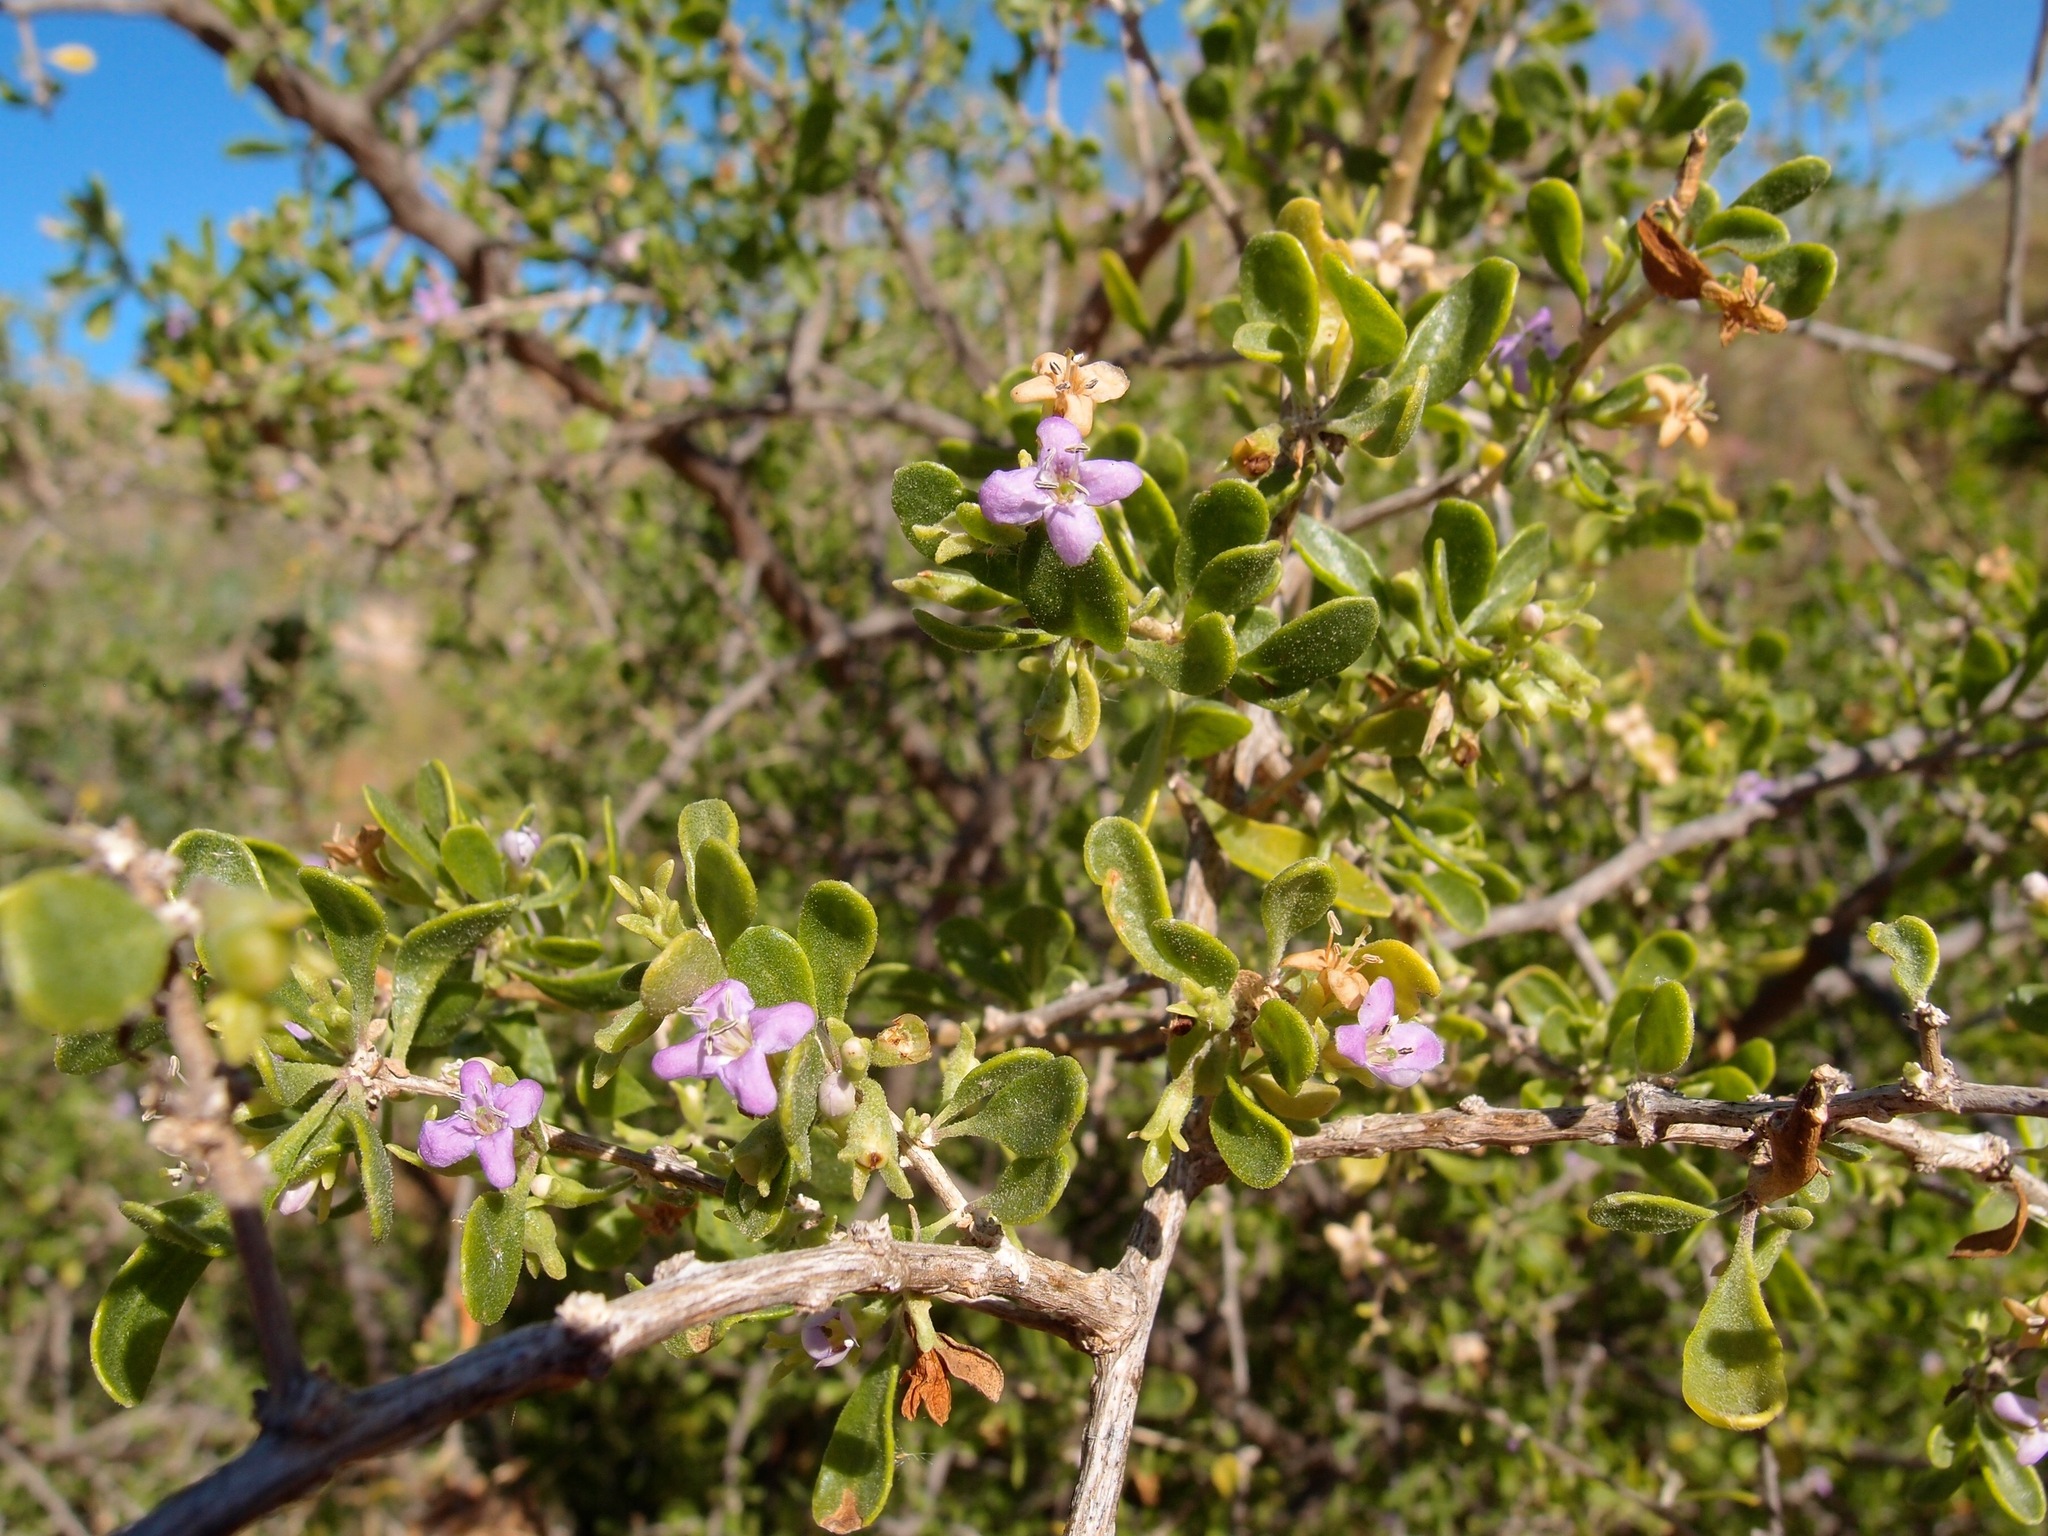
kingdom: Plantae
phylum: Tracheophyta
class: Magnoliopsida
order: Solanales
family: Solanaceae
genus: Lycium
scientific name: Lycium brevipes
